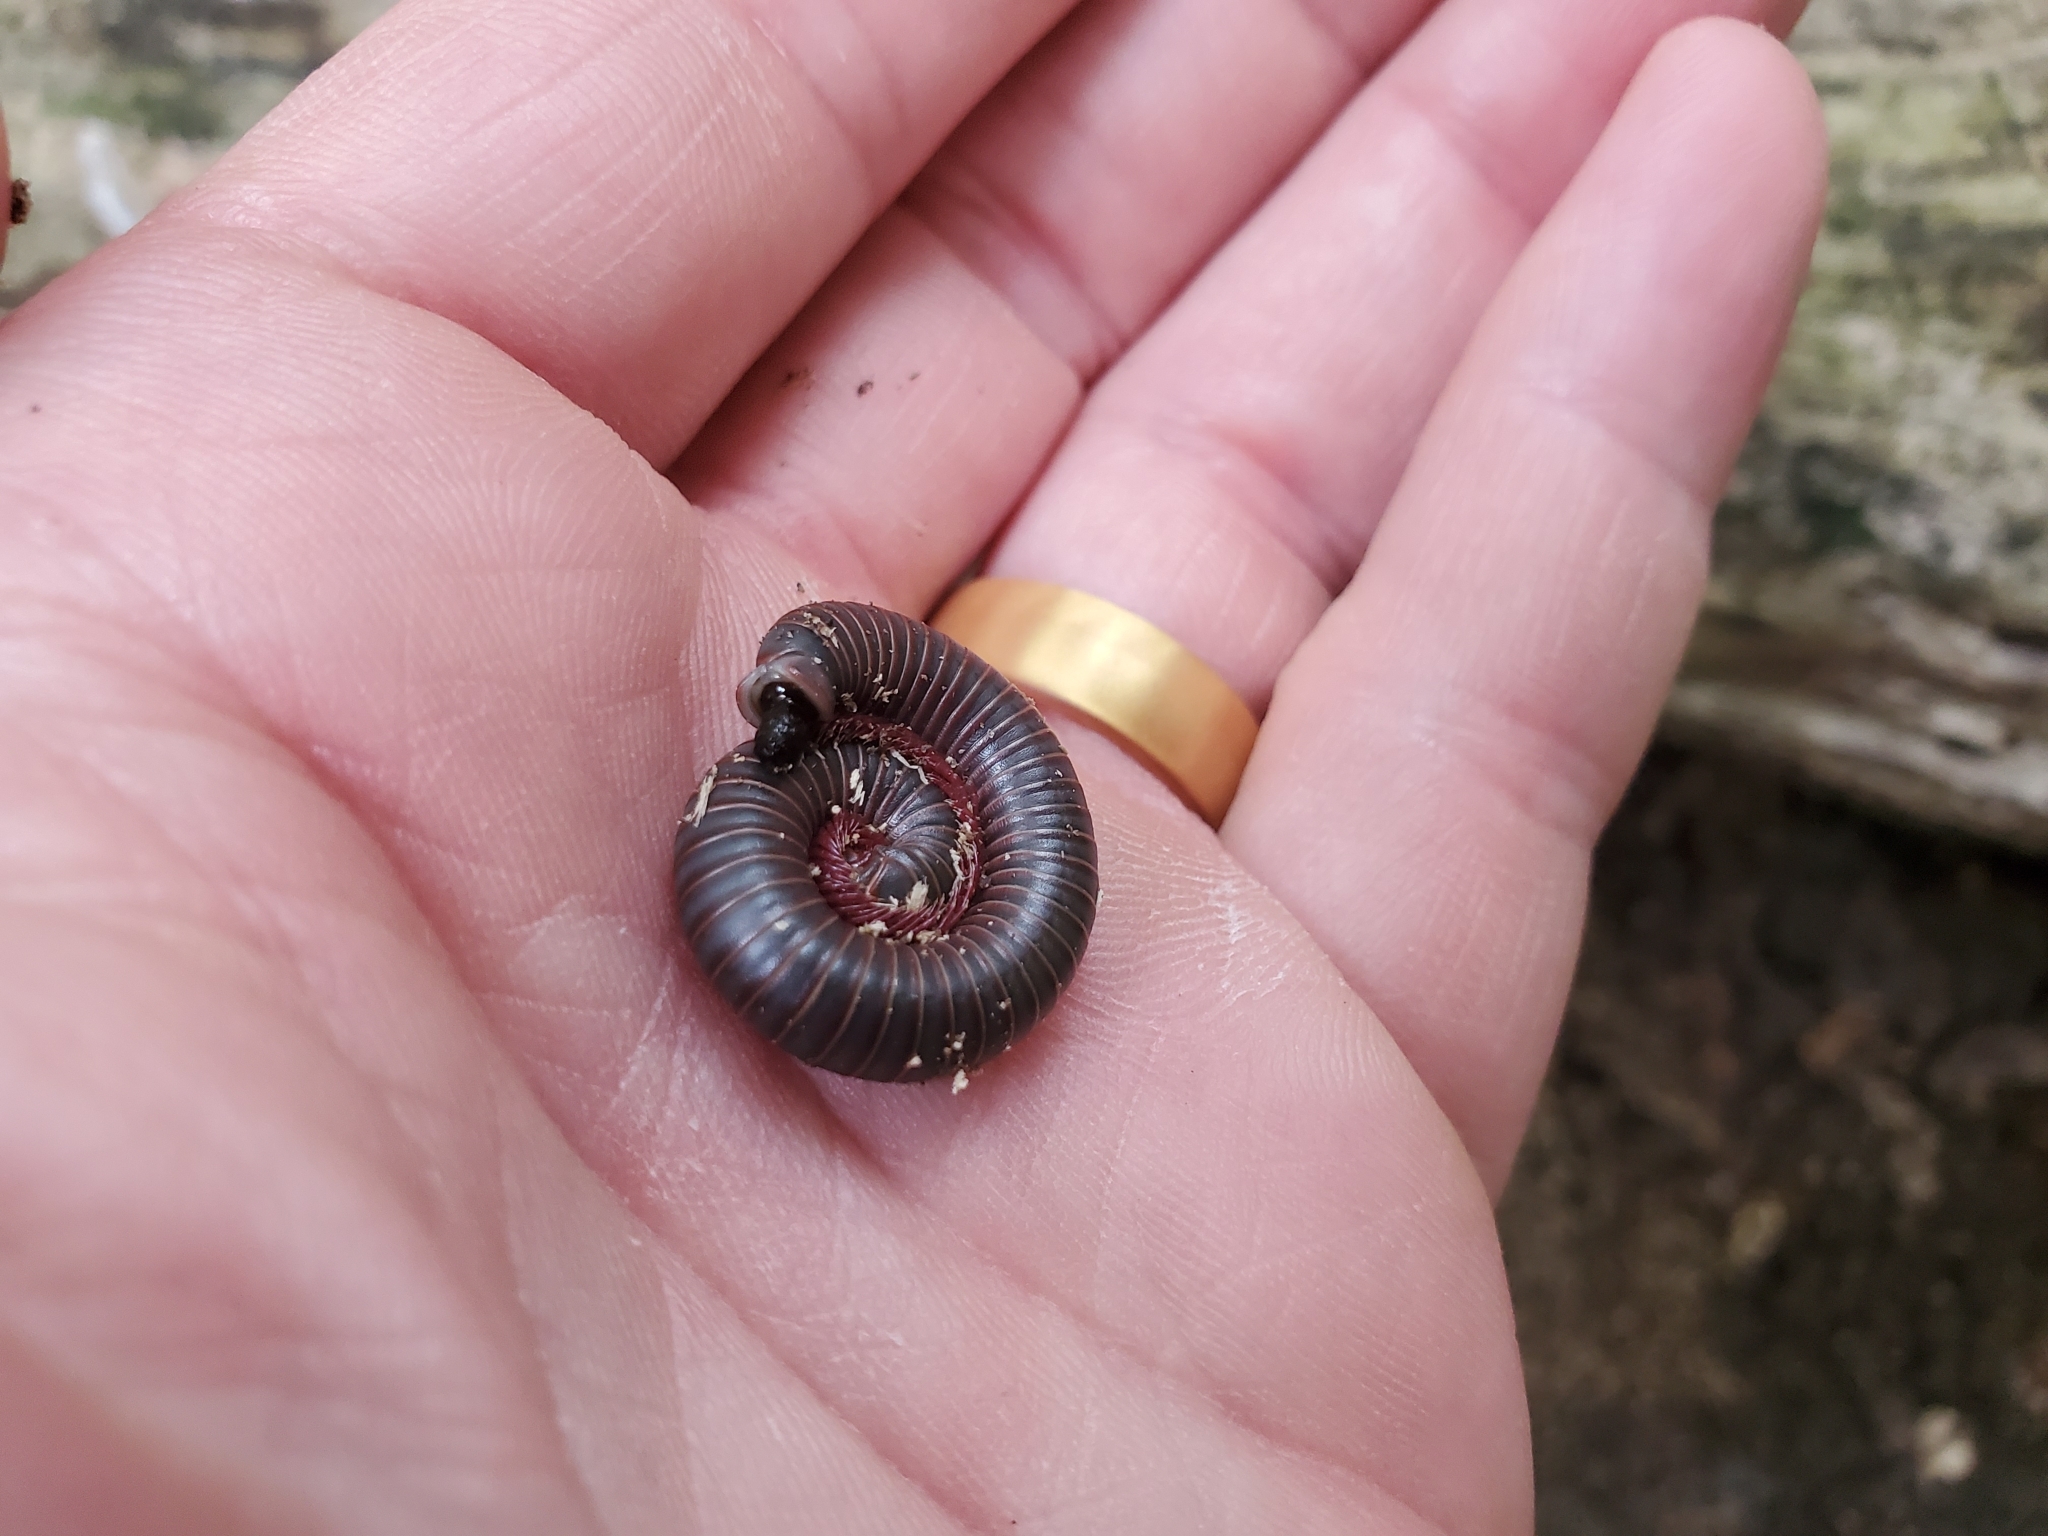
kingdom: Animalia
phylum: Arthropoda
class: Diplopoda
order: Spirobolida
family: Spirobolidae
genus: Narceus
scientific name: Narceus
